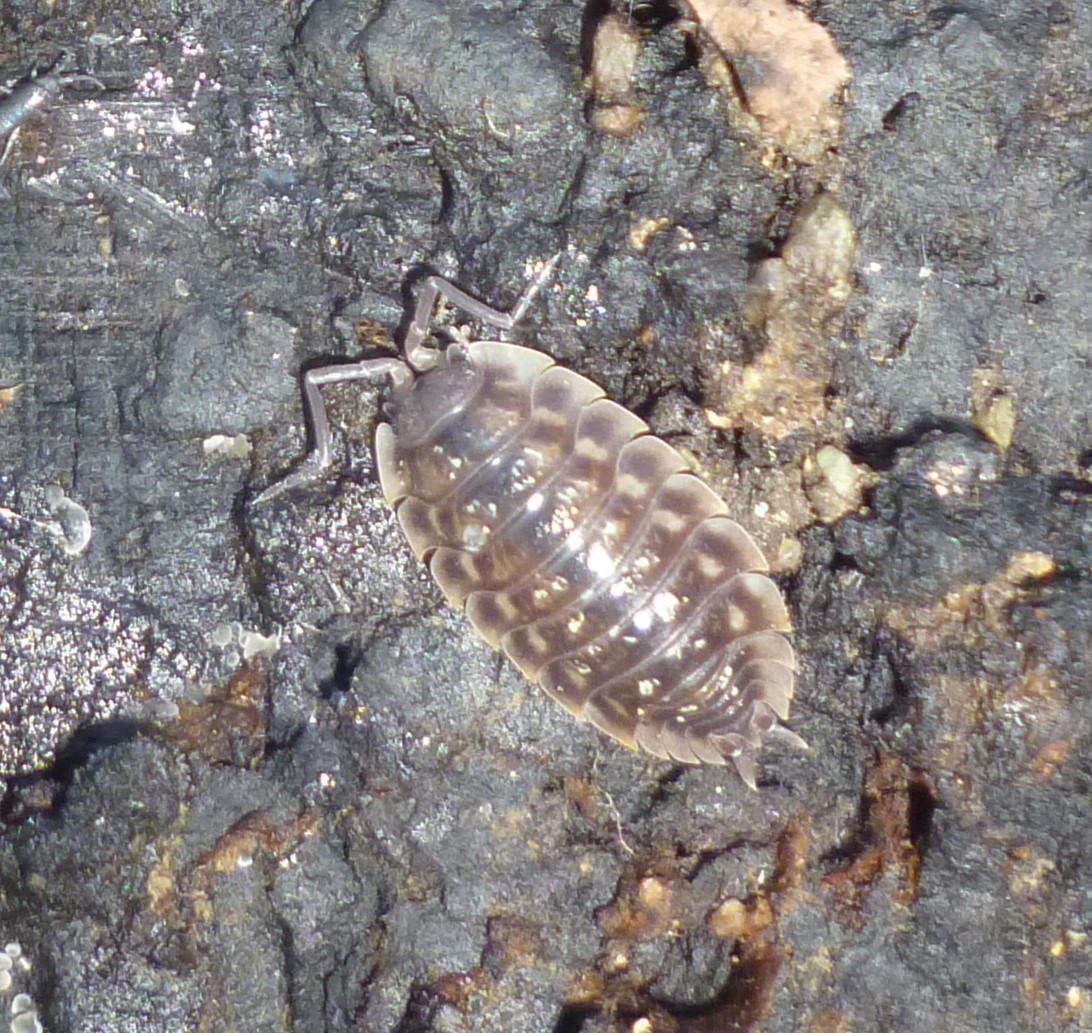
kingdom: Animalia
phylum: Arthropoda
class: Malacostraca
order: Isopoda
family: Oniscidae
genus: Oniscus
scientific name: Oniscus asellus
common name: Common shiny woodlouse
